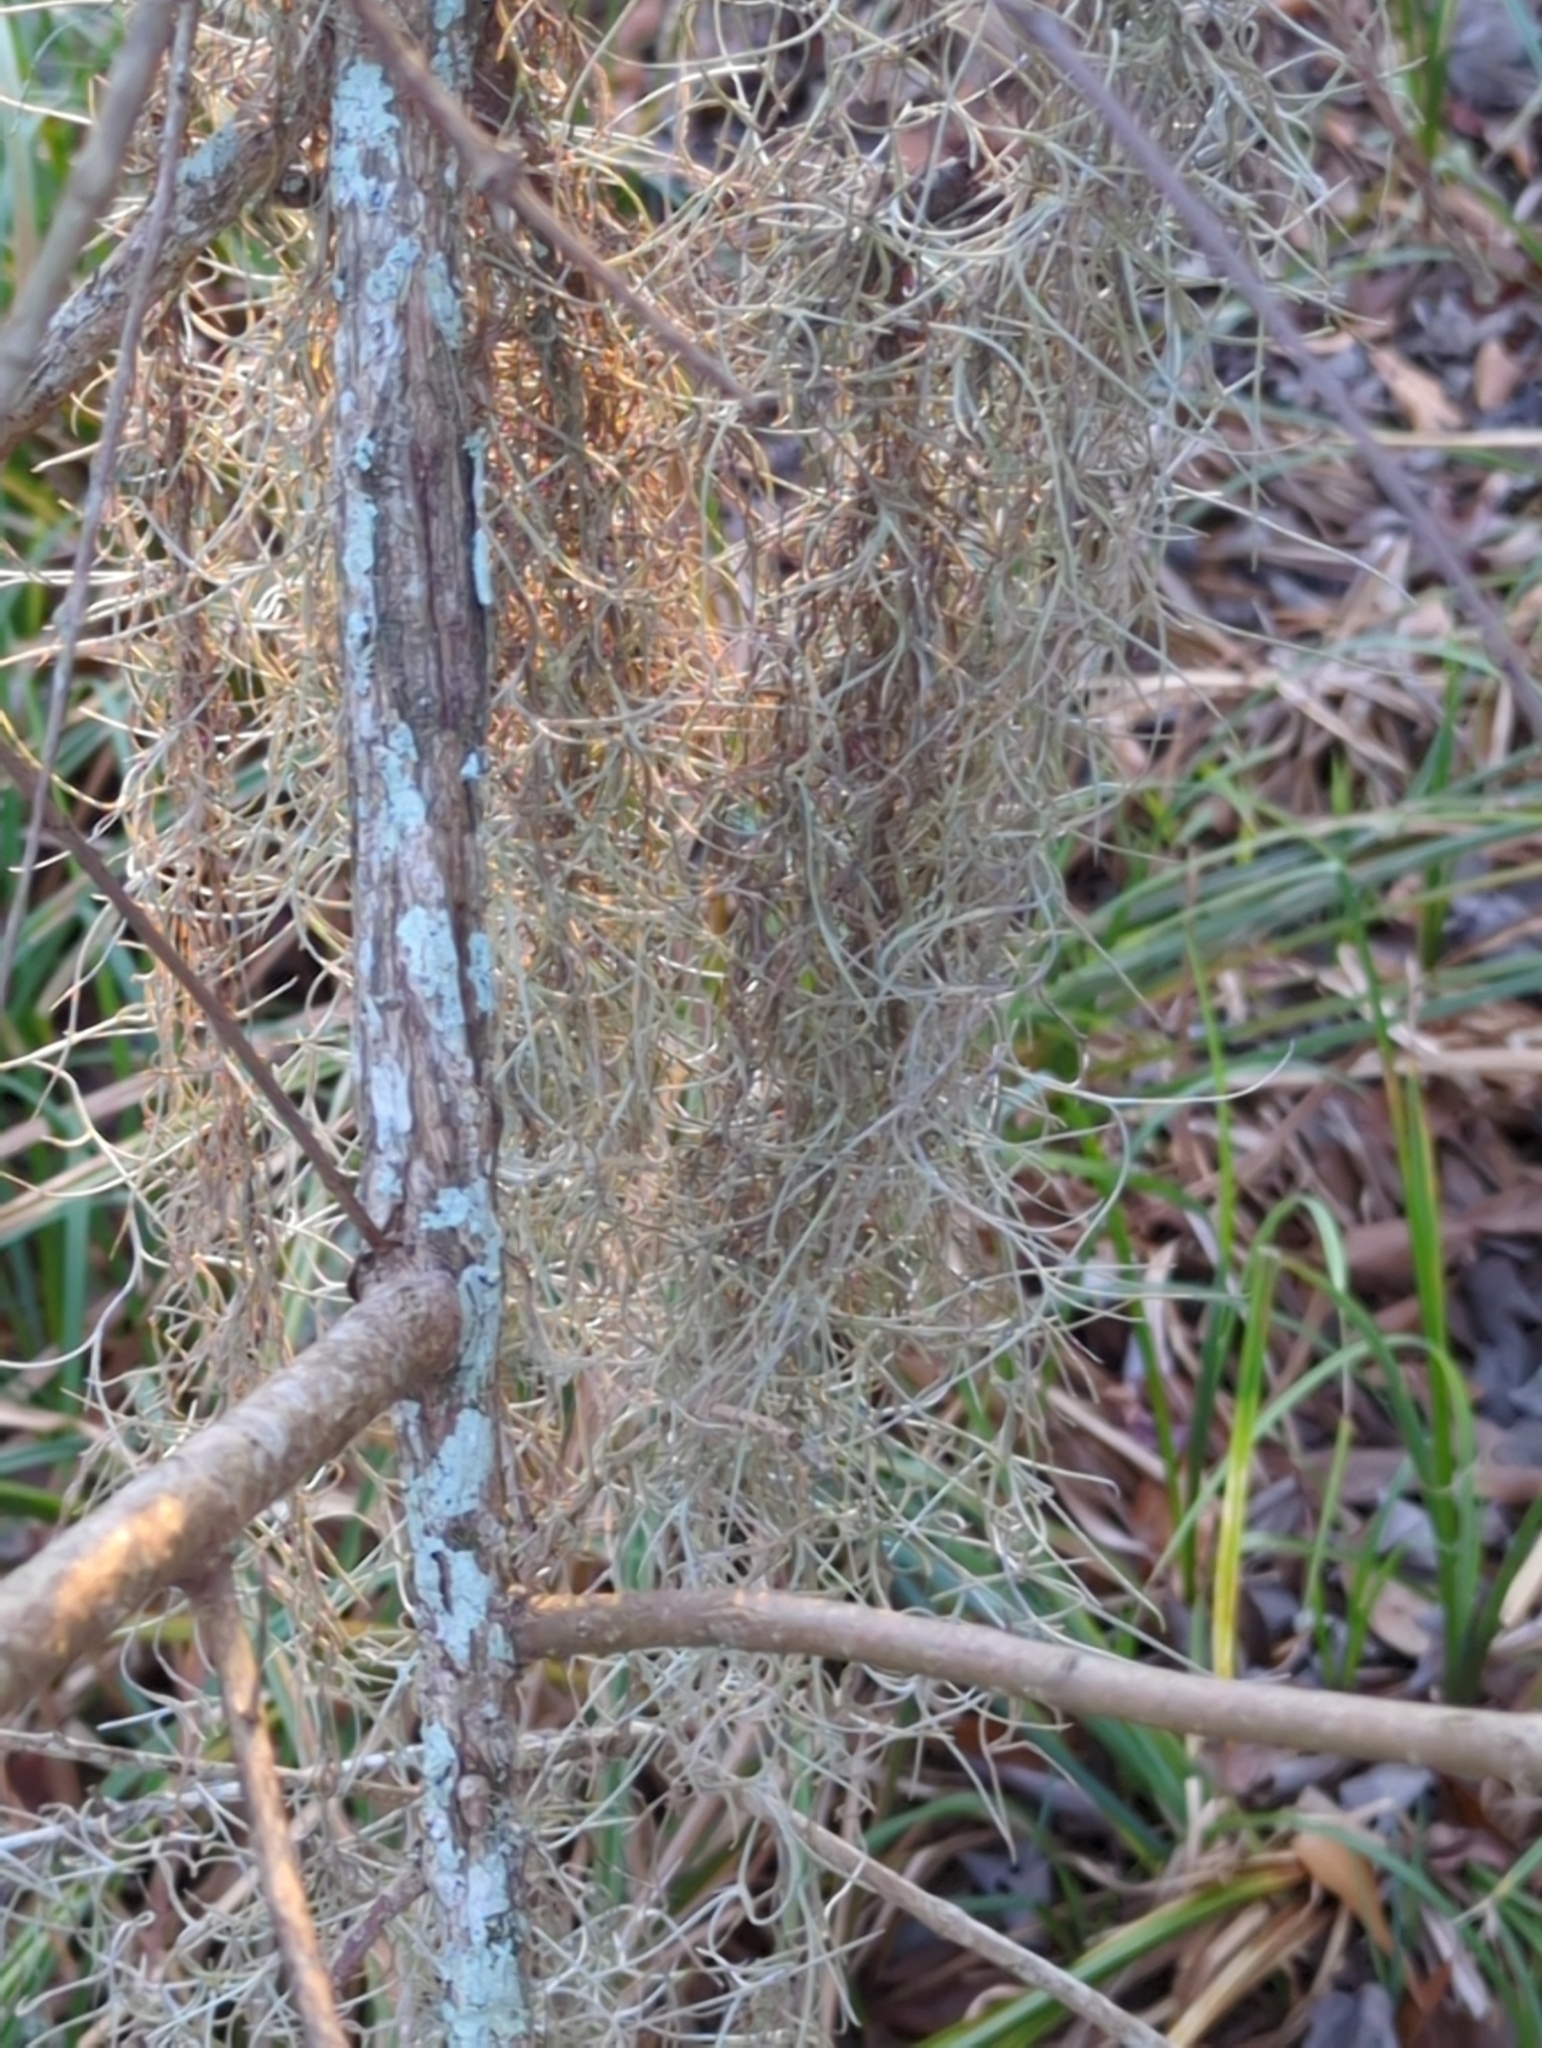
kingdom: Plantae
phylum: Tracheophyta
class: Liliopsida
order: Poales
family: Bromeliaceae
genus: Tillandsia
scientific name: Tillandsia usneoides
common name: Spanish moss
